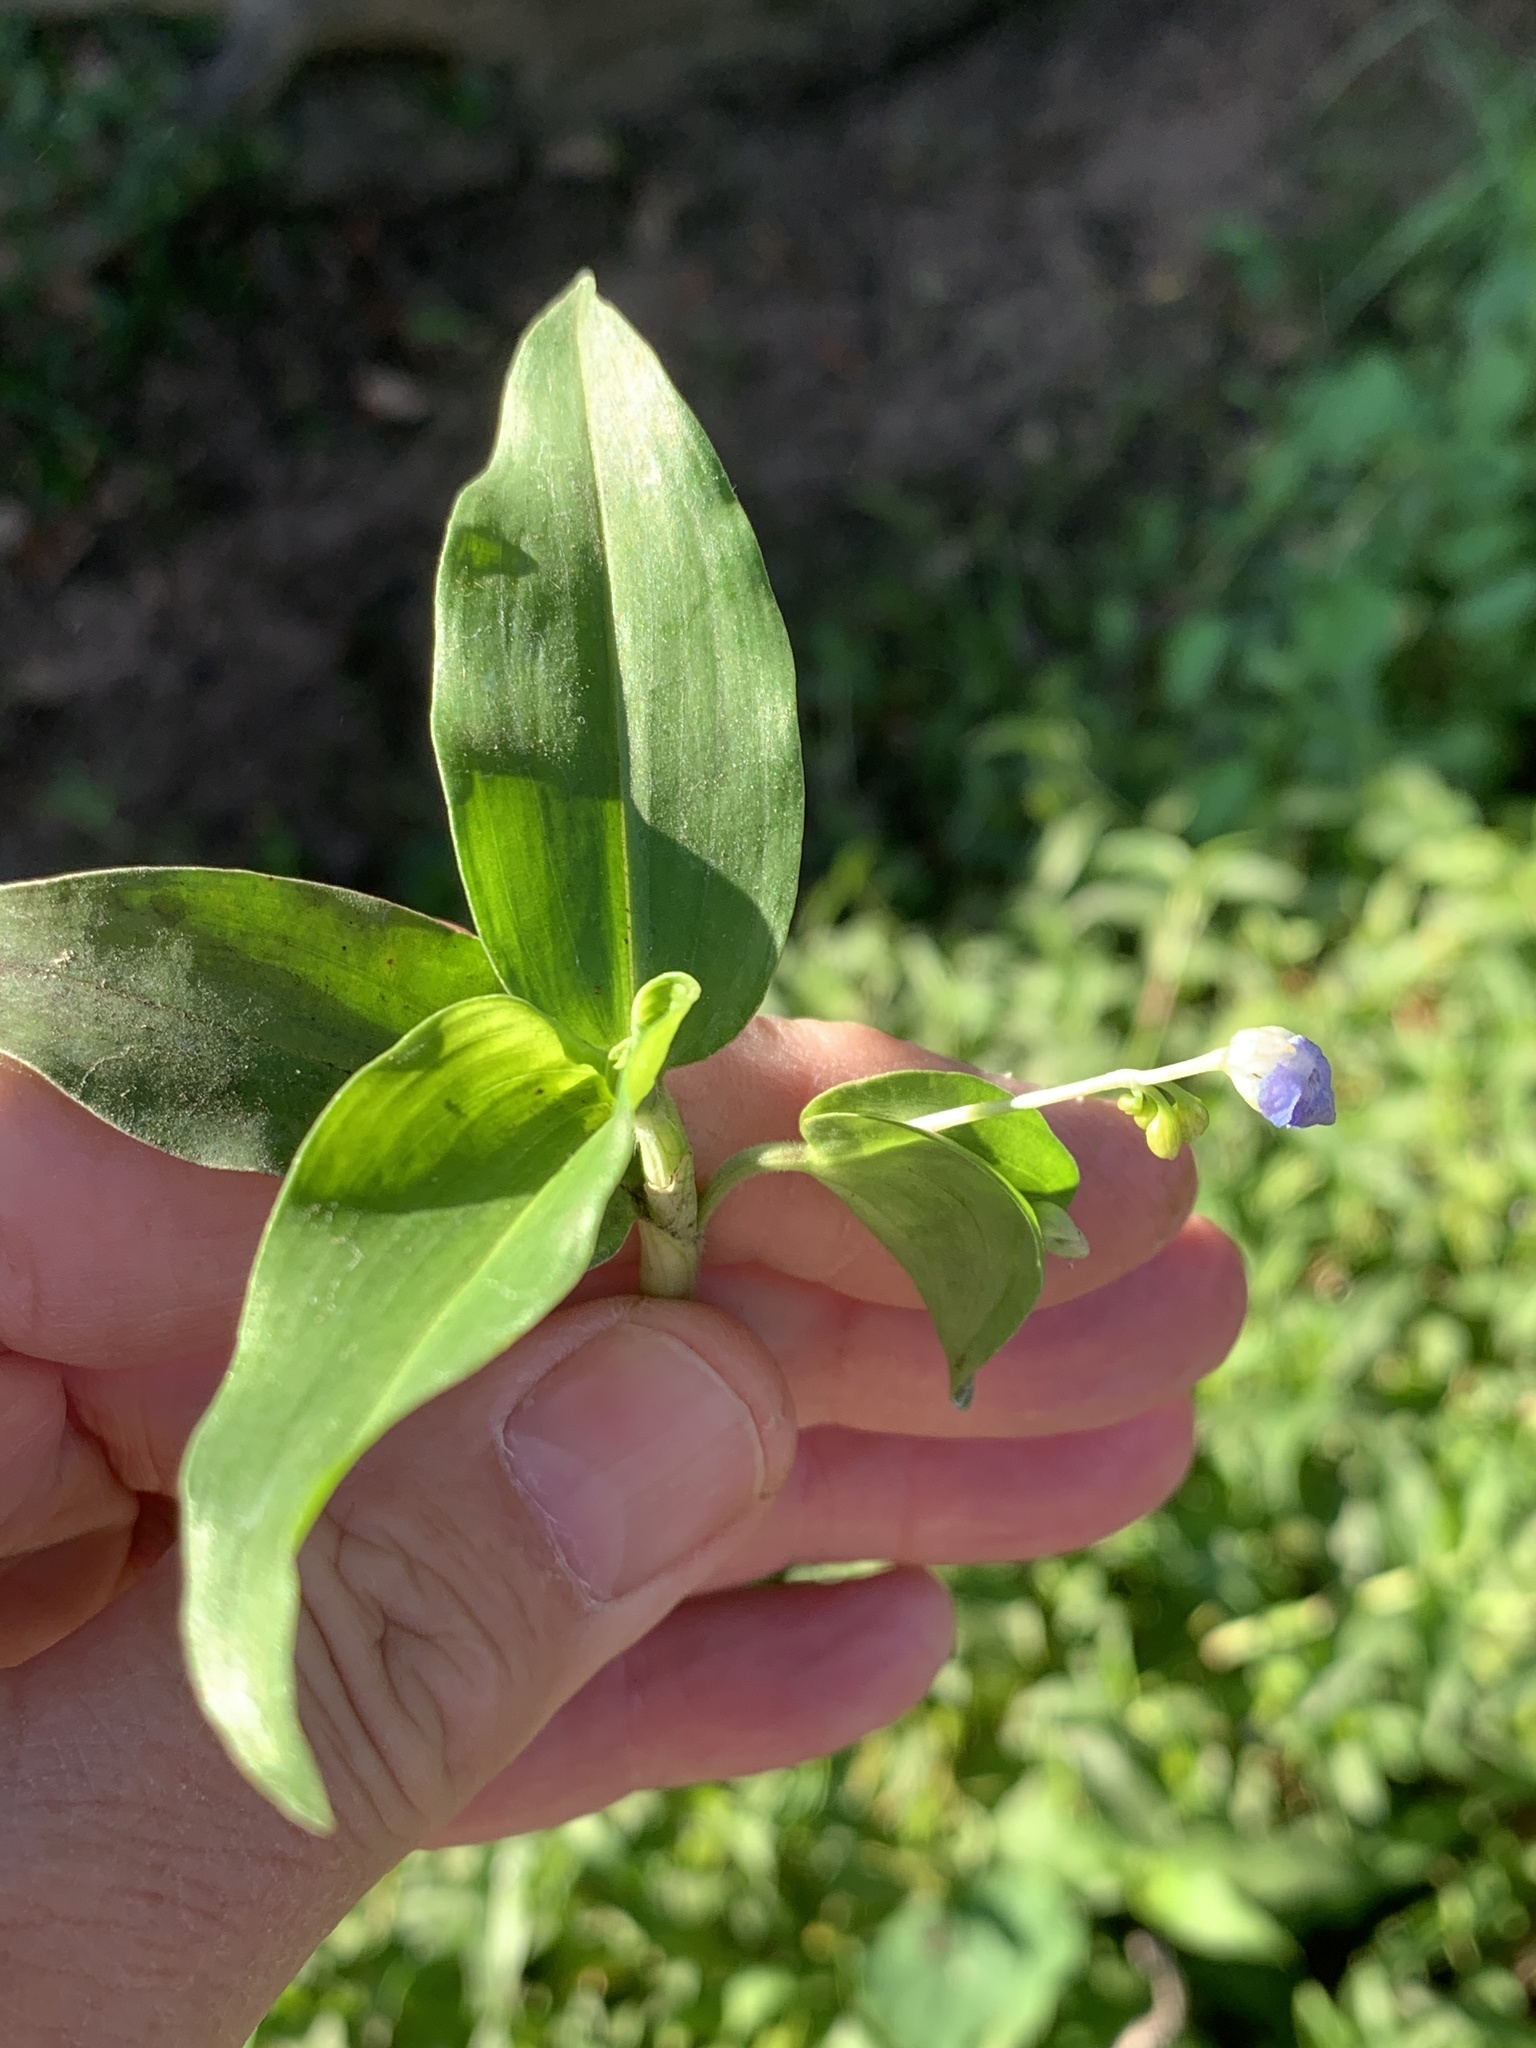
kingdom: Plantae
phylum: Tracheophyta
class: Liliopsida
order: Commelinales
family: Commelinaceae
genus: Commelina
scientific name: Commelina diffusa
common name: Climbing dayflower
